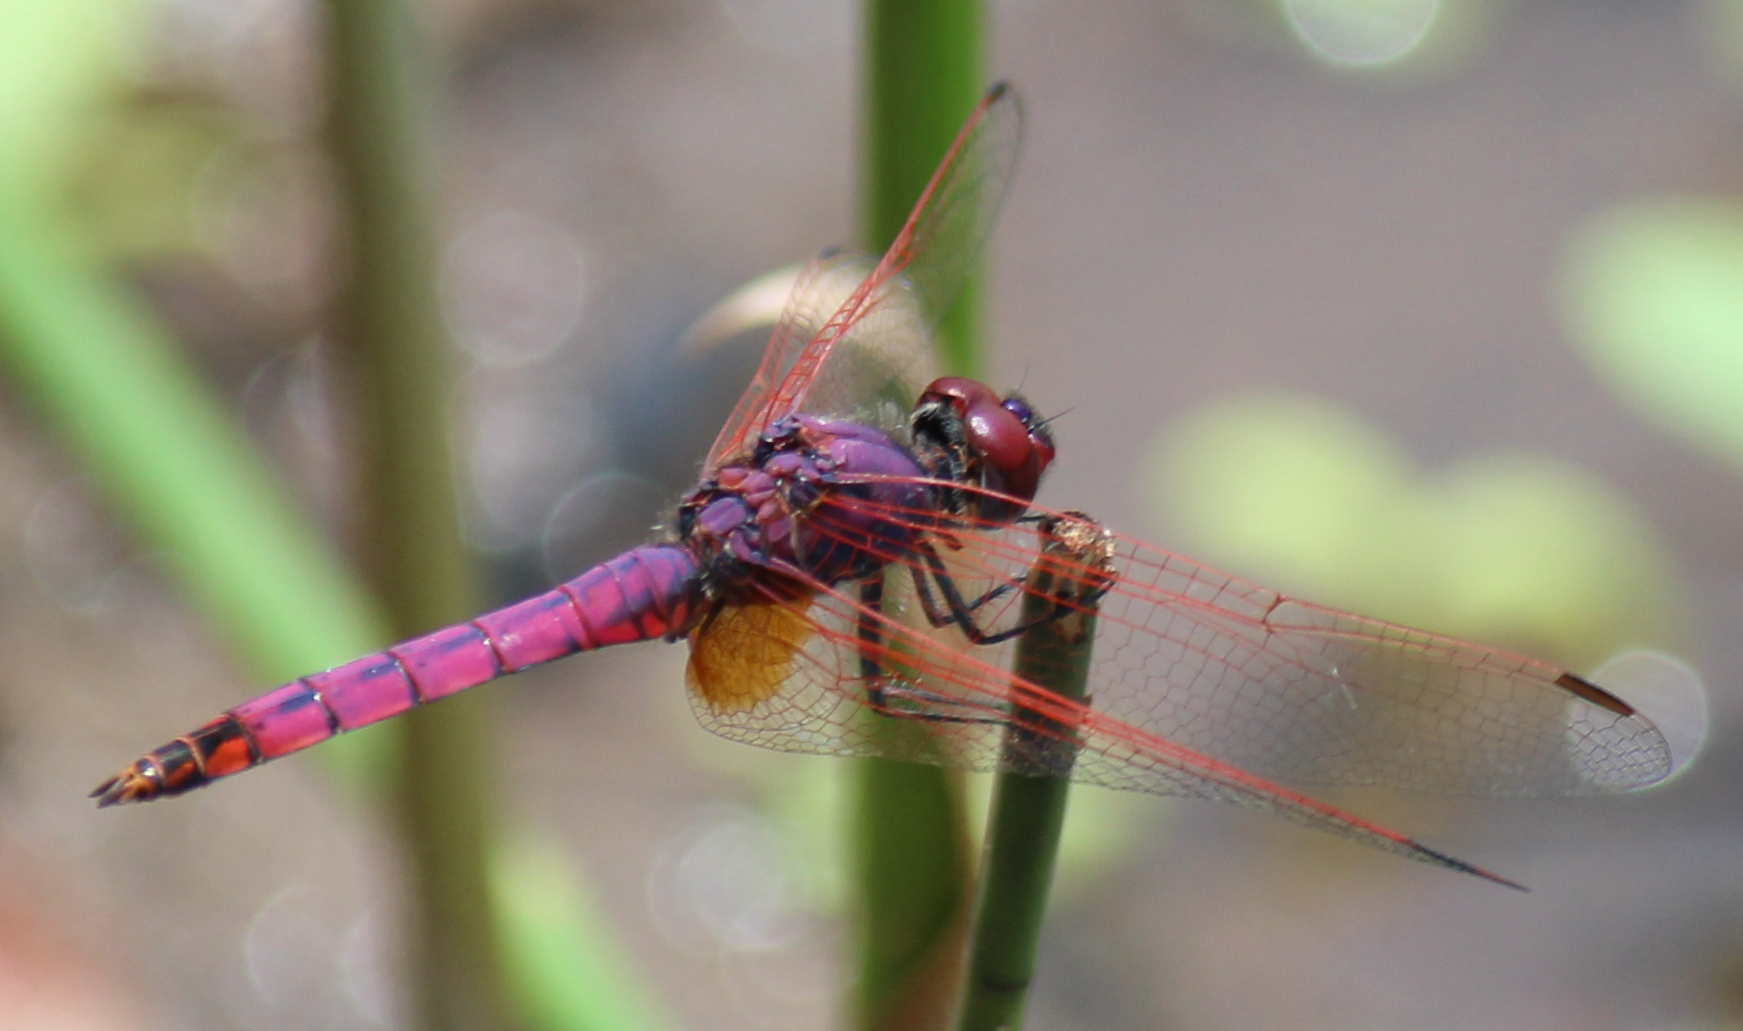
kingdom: Animalia
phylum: Arthropoda
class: Insecta
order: Odonata
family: Libellulidae
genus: Trithemis
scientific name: Trithemis annulata
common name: Violet dropwing
